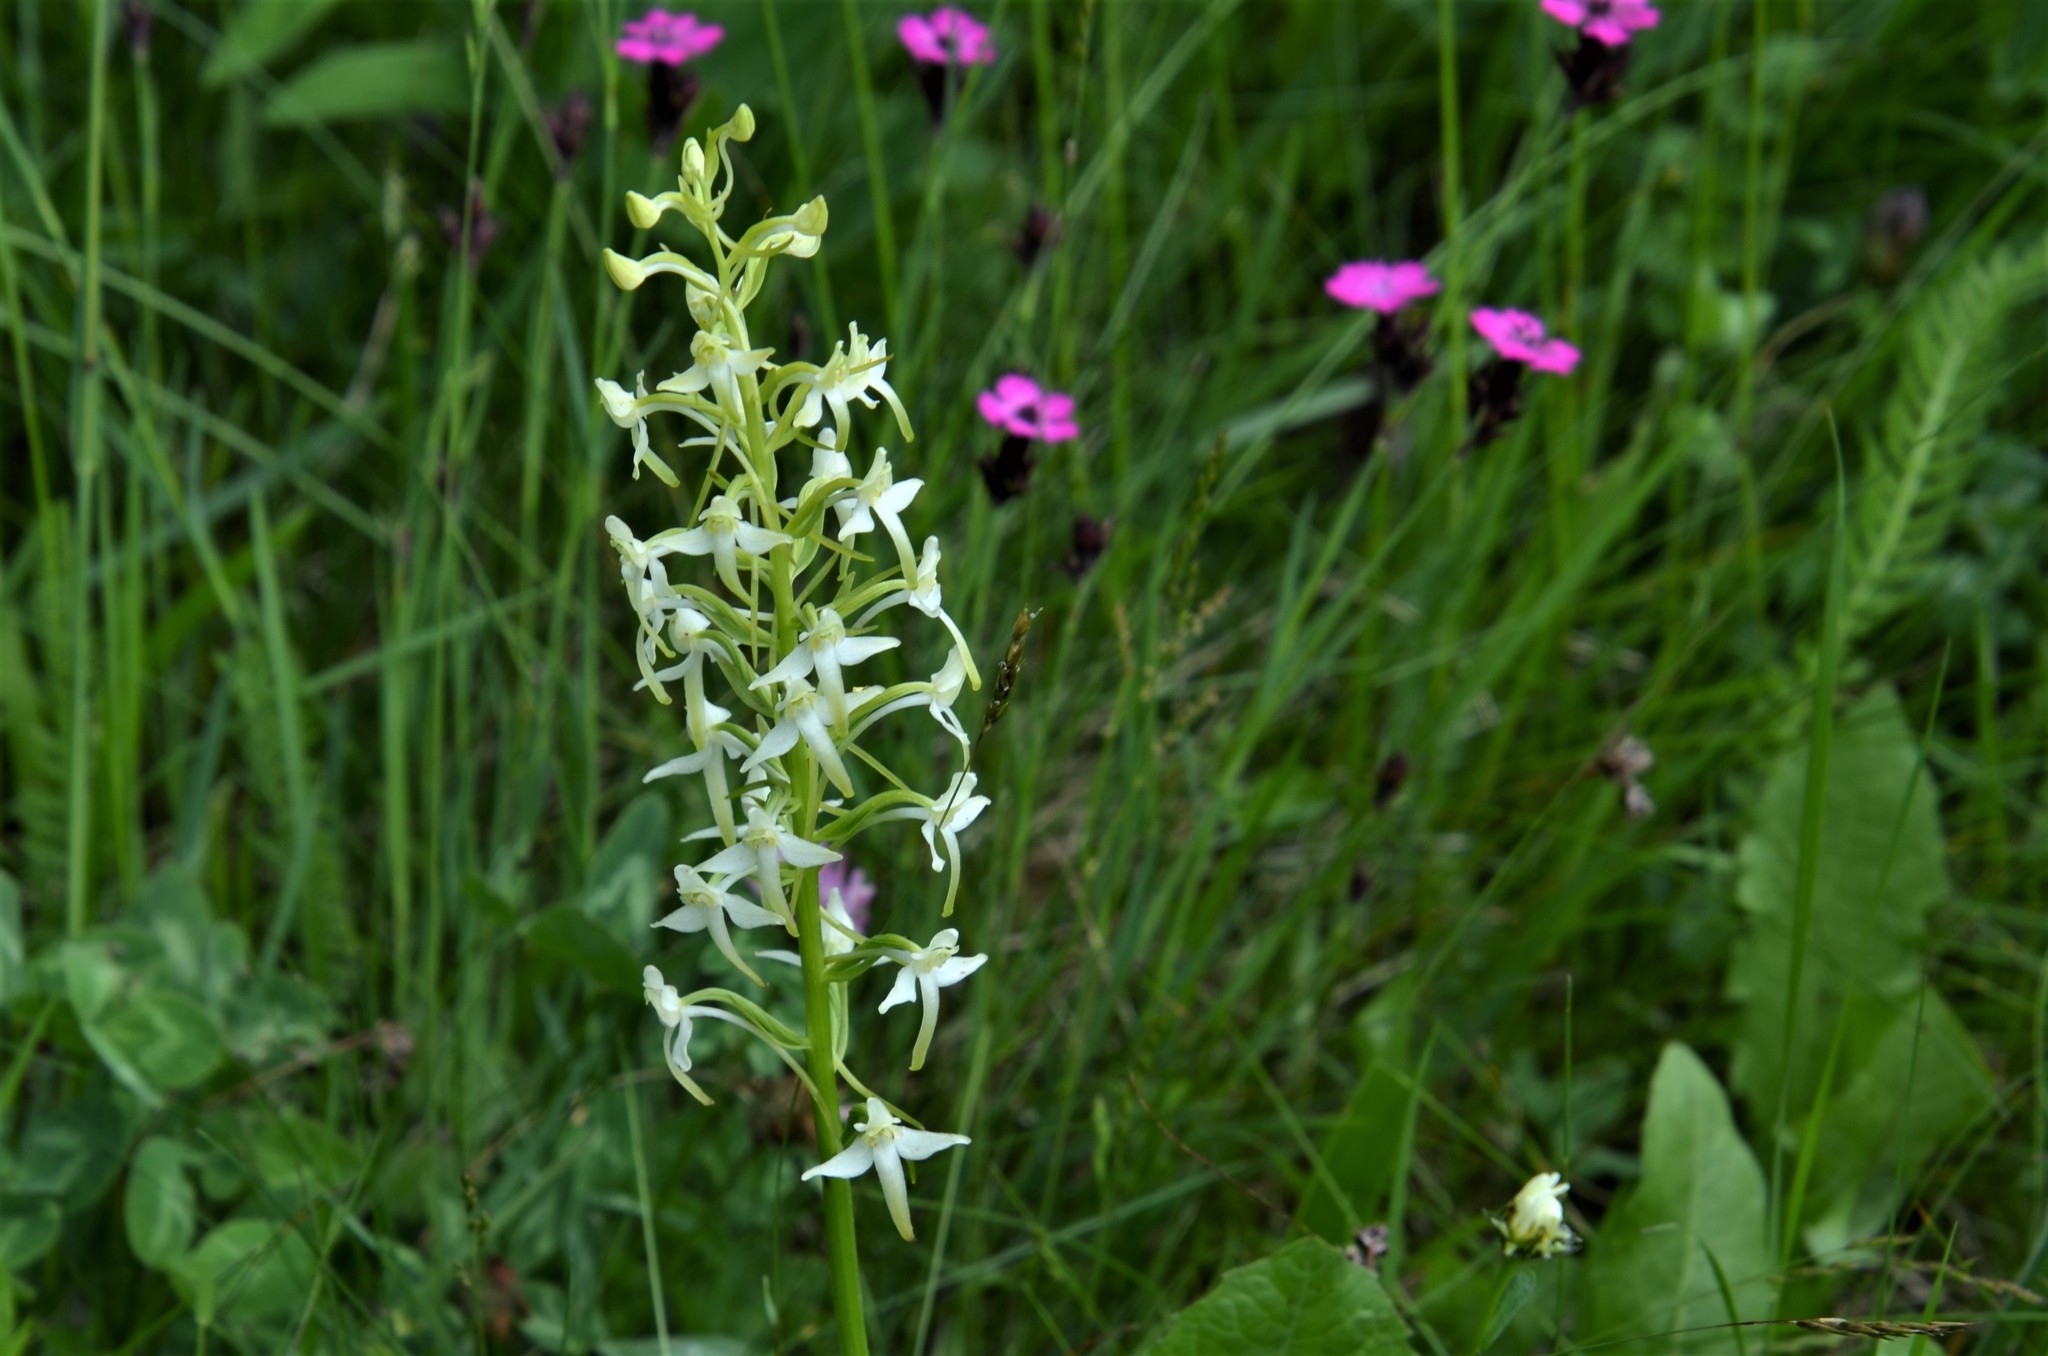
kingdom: Plantae
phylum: Tracheophyta
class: Liliopsida
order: Asparagales
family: Orchidaceae
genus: Platanthera
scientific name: Platanthera chlorantha
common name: Greater butterfly-orchid
